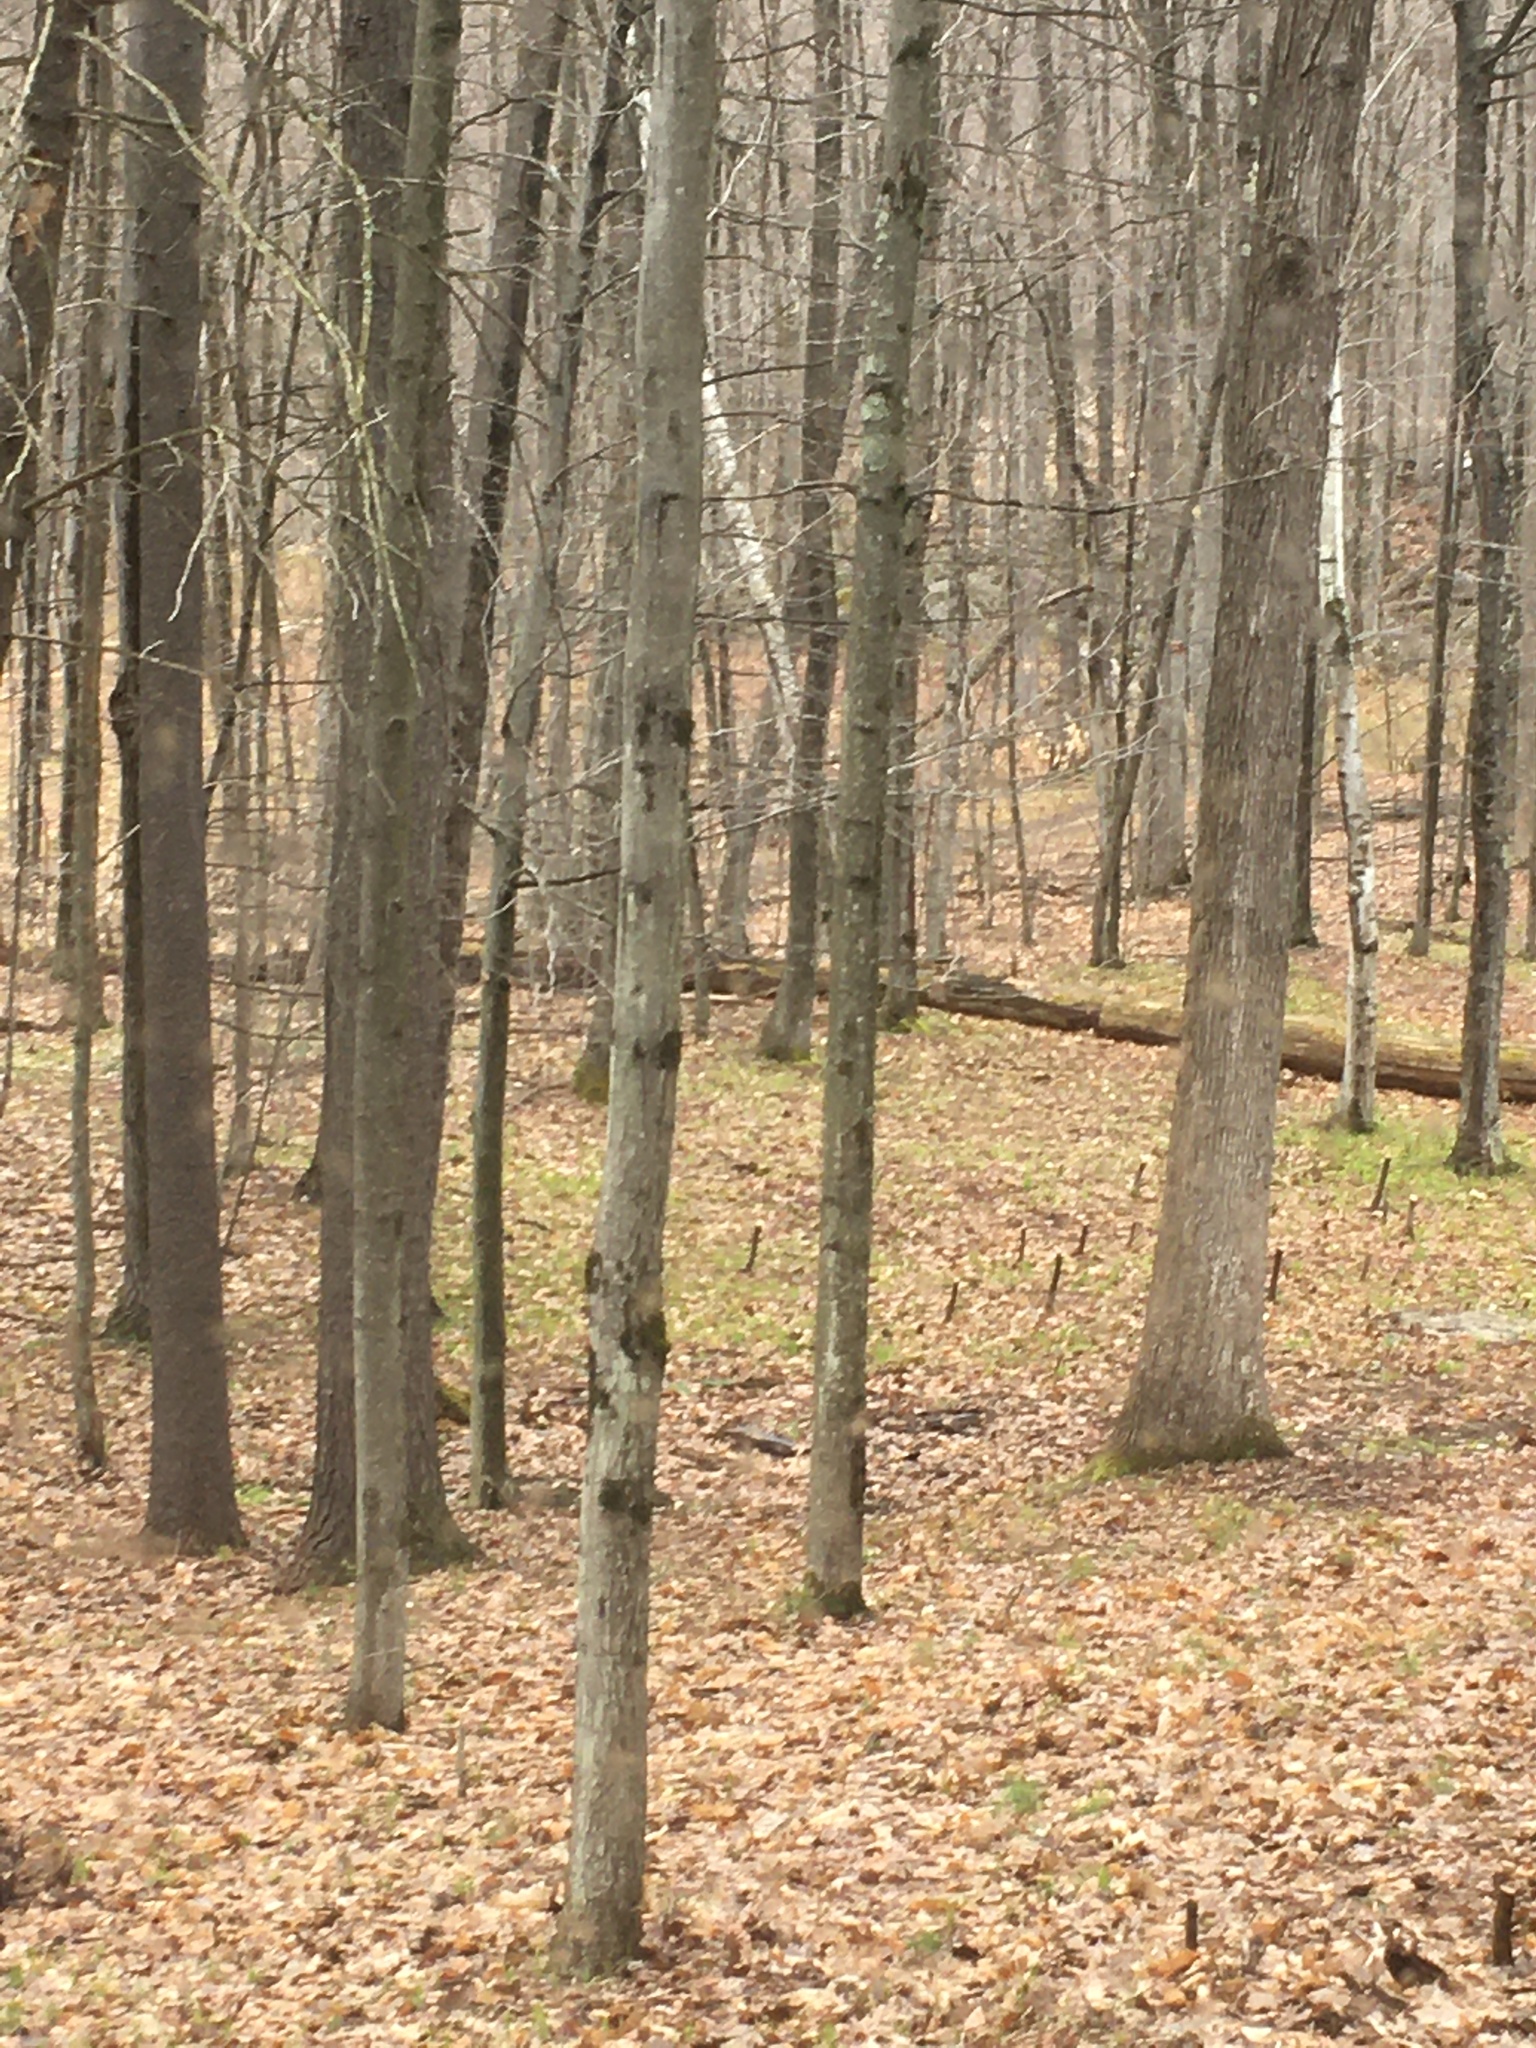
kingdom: Plantae
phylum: Tracheophyta
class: Pinopsida
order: Pinales
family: Pinaceae
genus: Pinus
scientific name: Pinus strobus
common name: Weymouth pine
